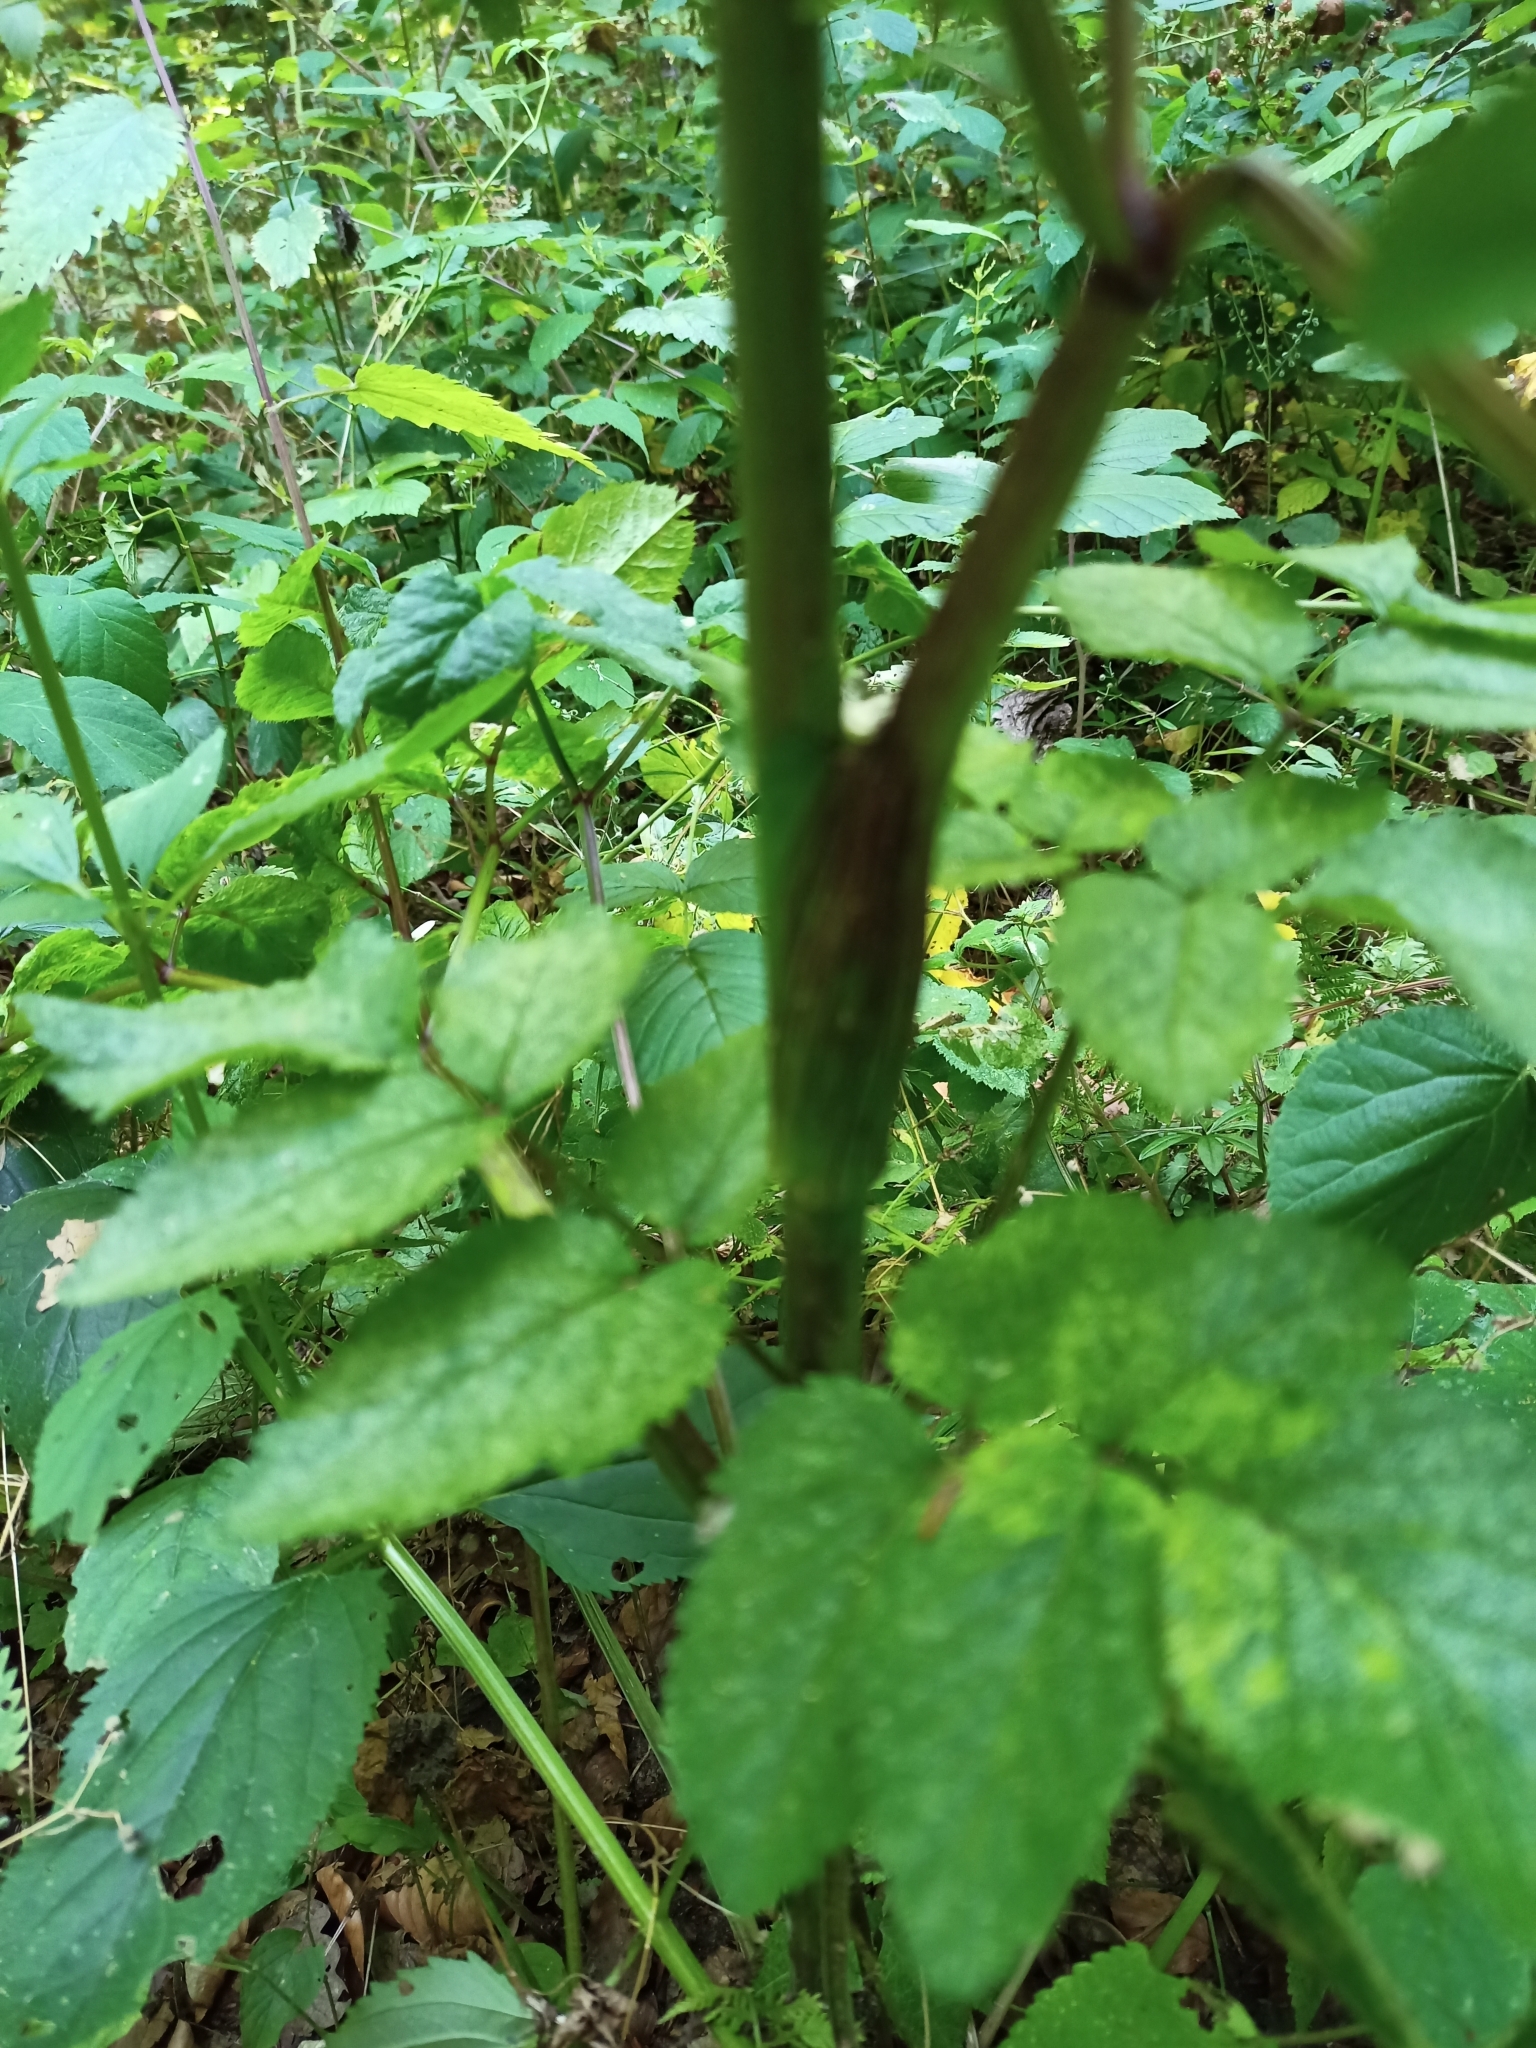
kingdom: Plantae
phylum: Tracheophyta
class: Magnoliopsida
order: Apiales
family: Apiaceae
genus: Angelica
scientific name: Angelica sylvestris
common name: Wild angelica
